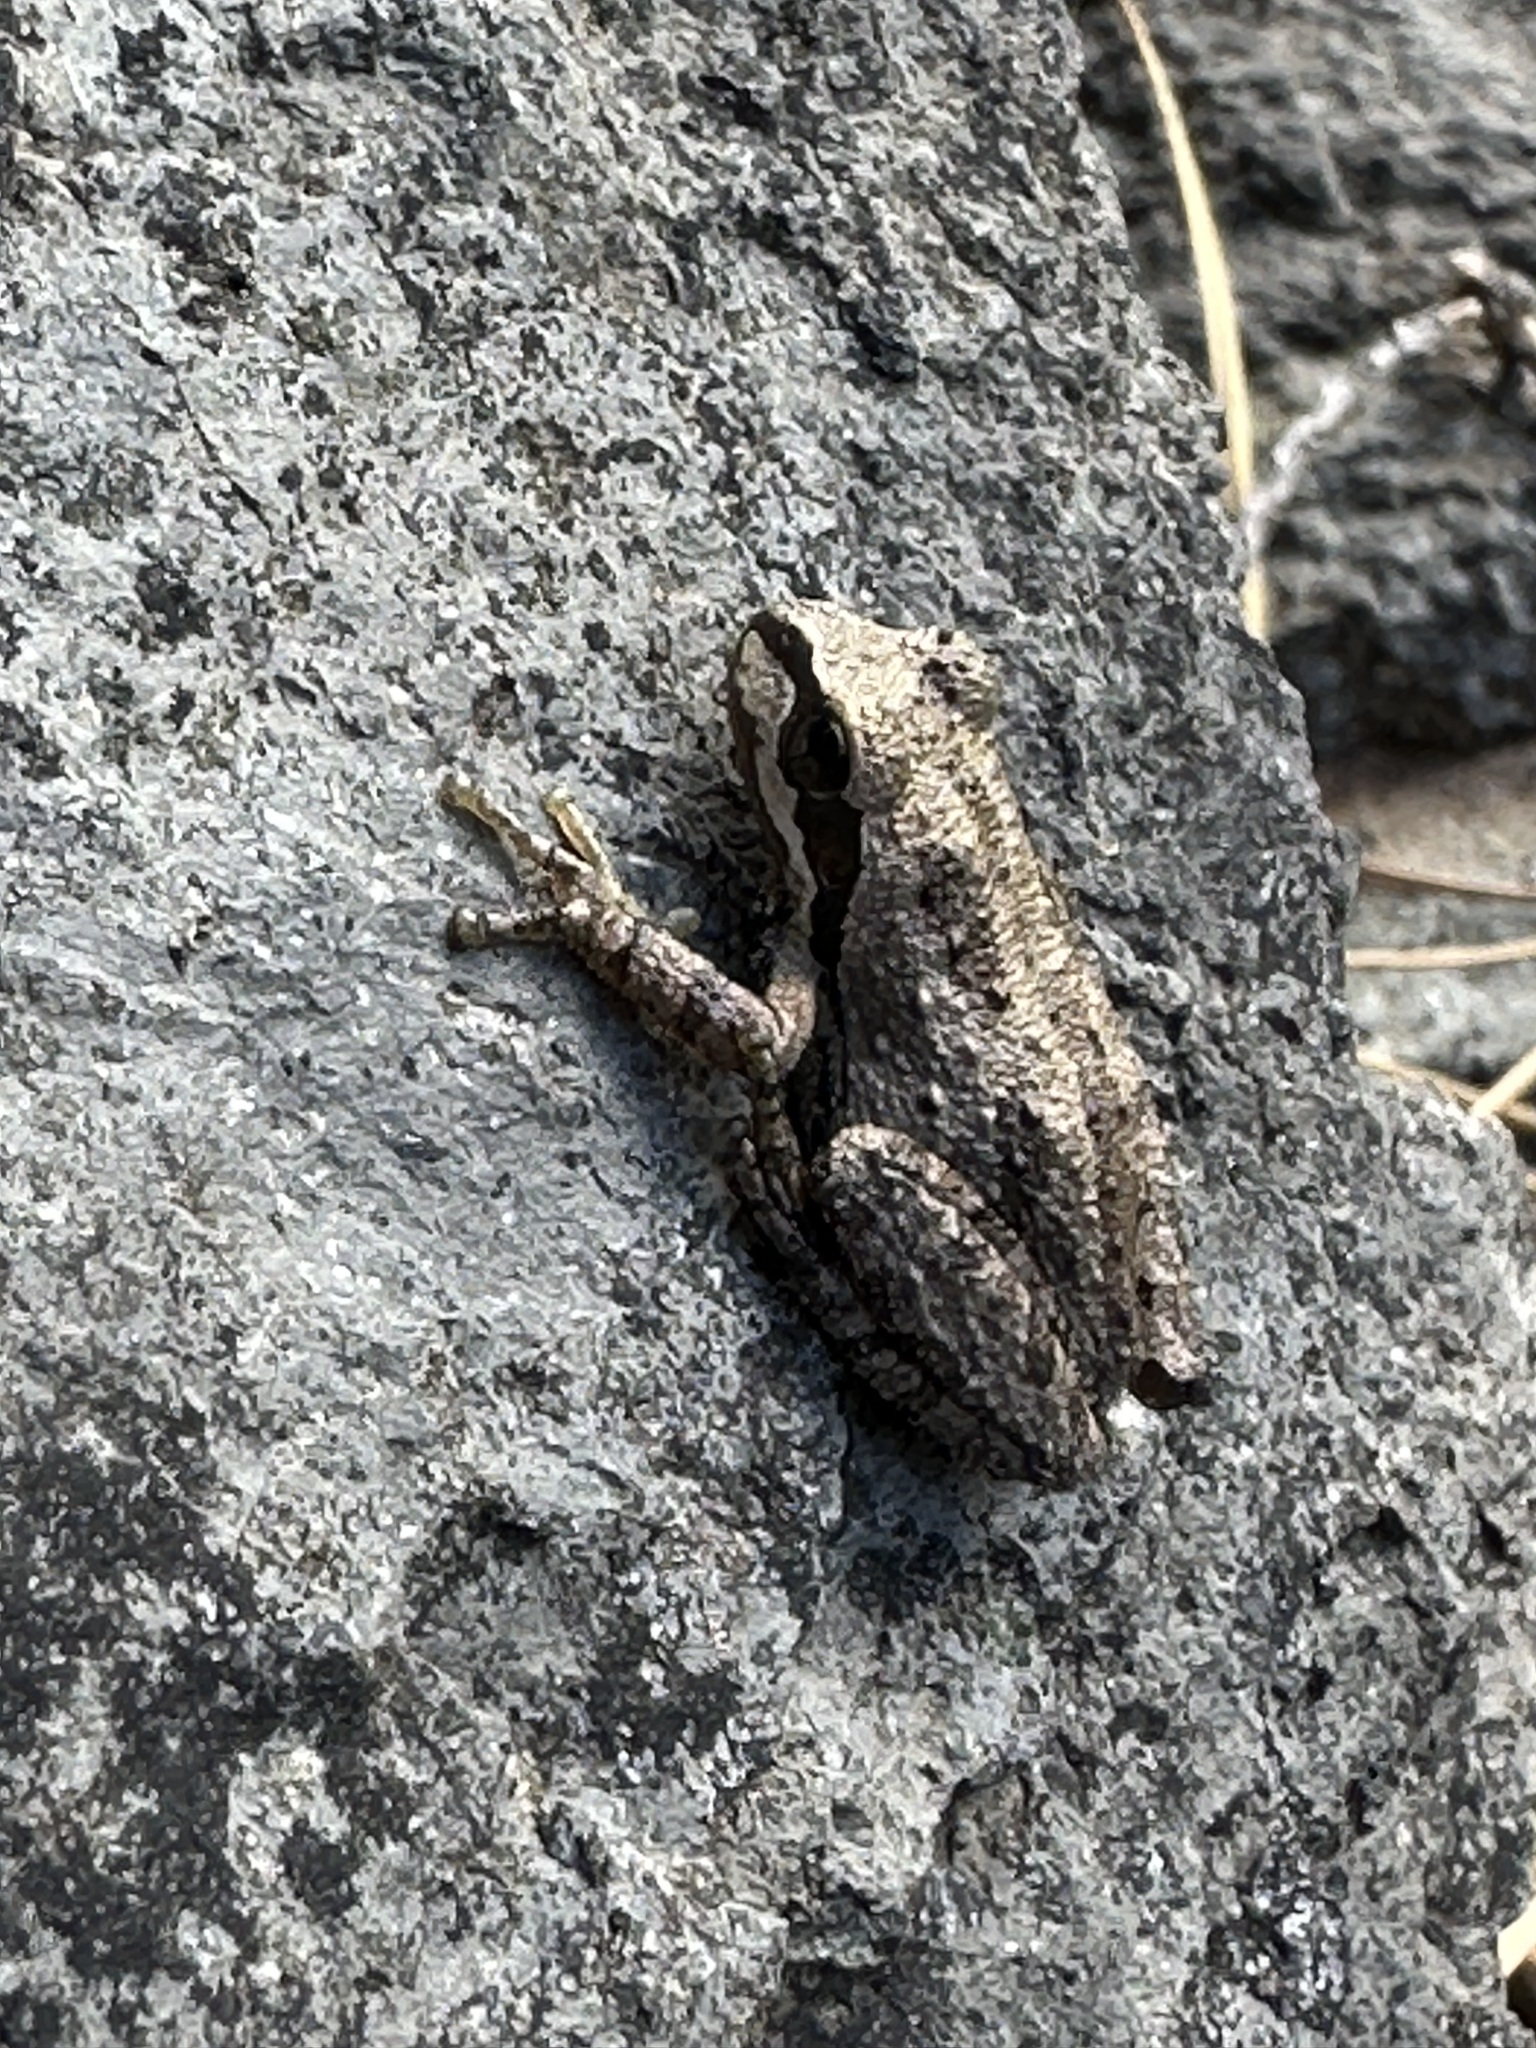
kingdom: Animalia
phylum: Chordata
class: Amphibia
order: Anura
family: Hylidae
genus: Pseudacris
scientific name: Pseudacris regilla
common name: Pacific chorus frog
